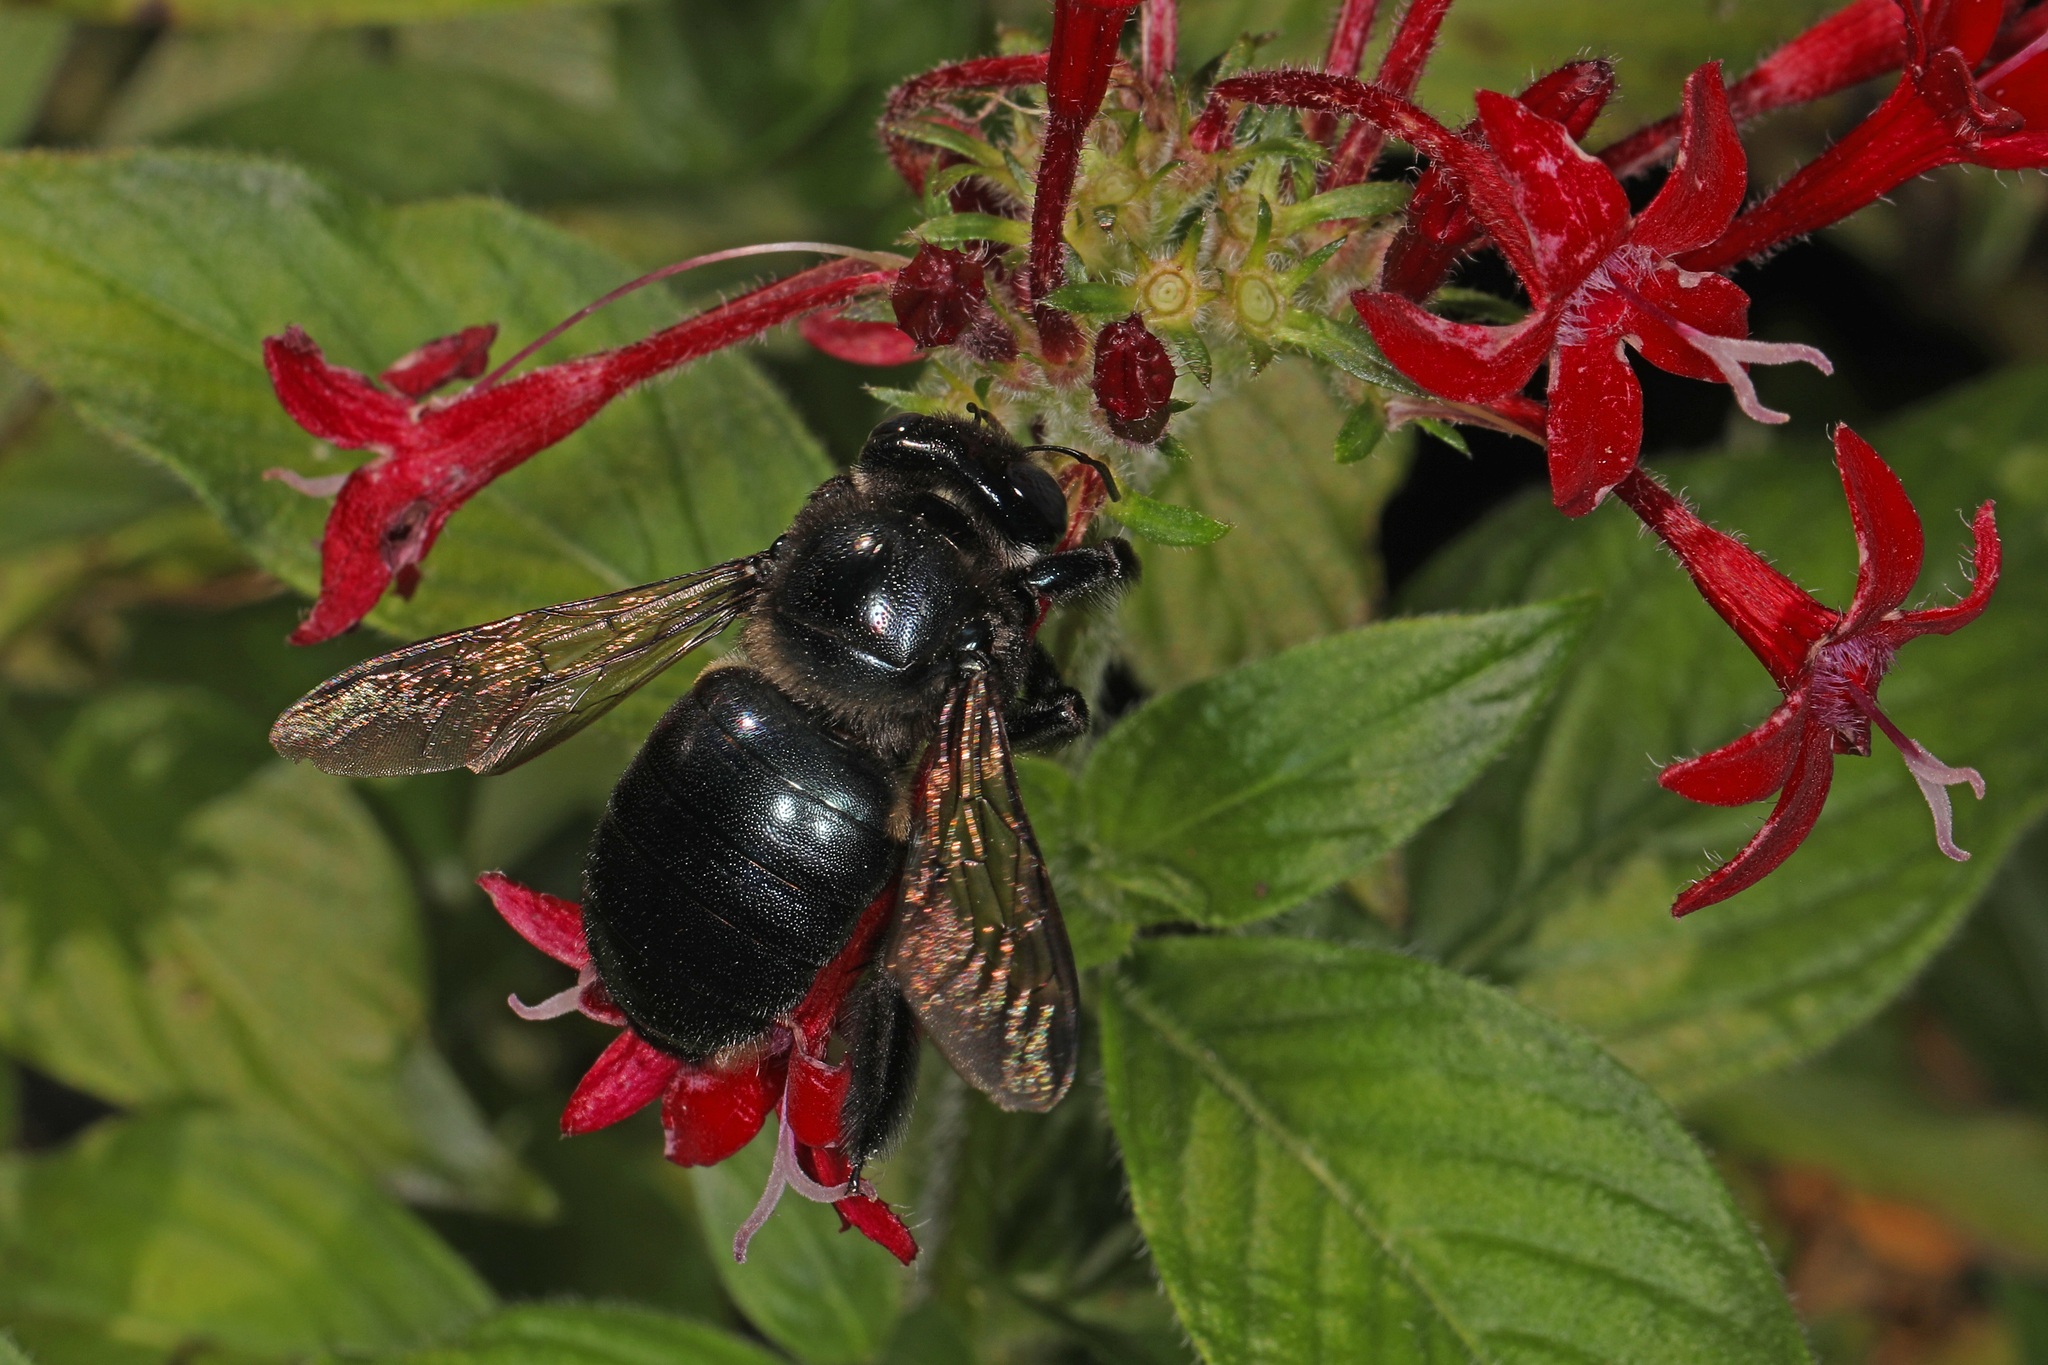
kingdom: Animalia
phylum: Arthropoda
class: Insecta
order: Hymenoptera
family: Apidae
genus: Xylocopa
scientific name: Xylocopa micans
